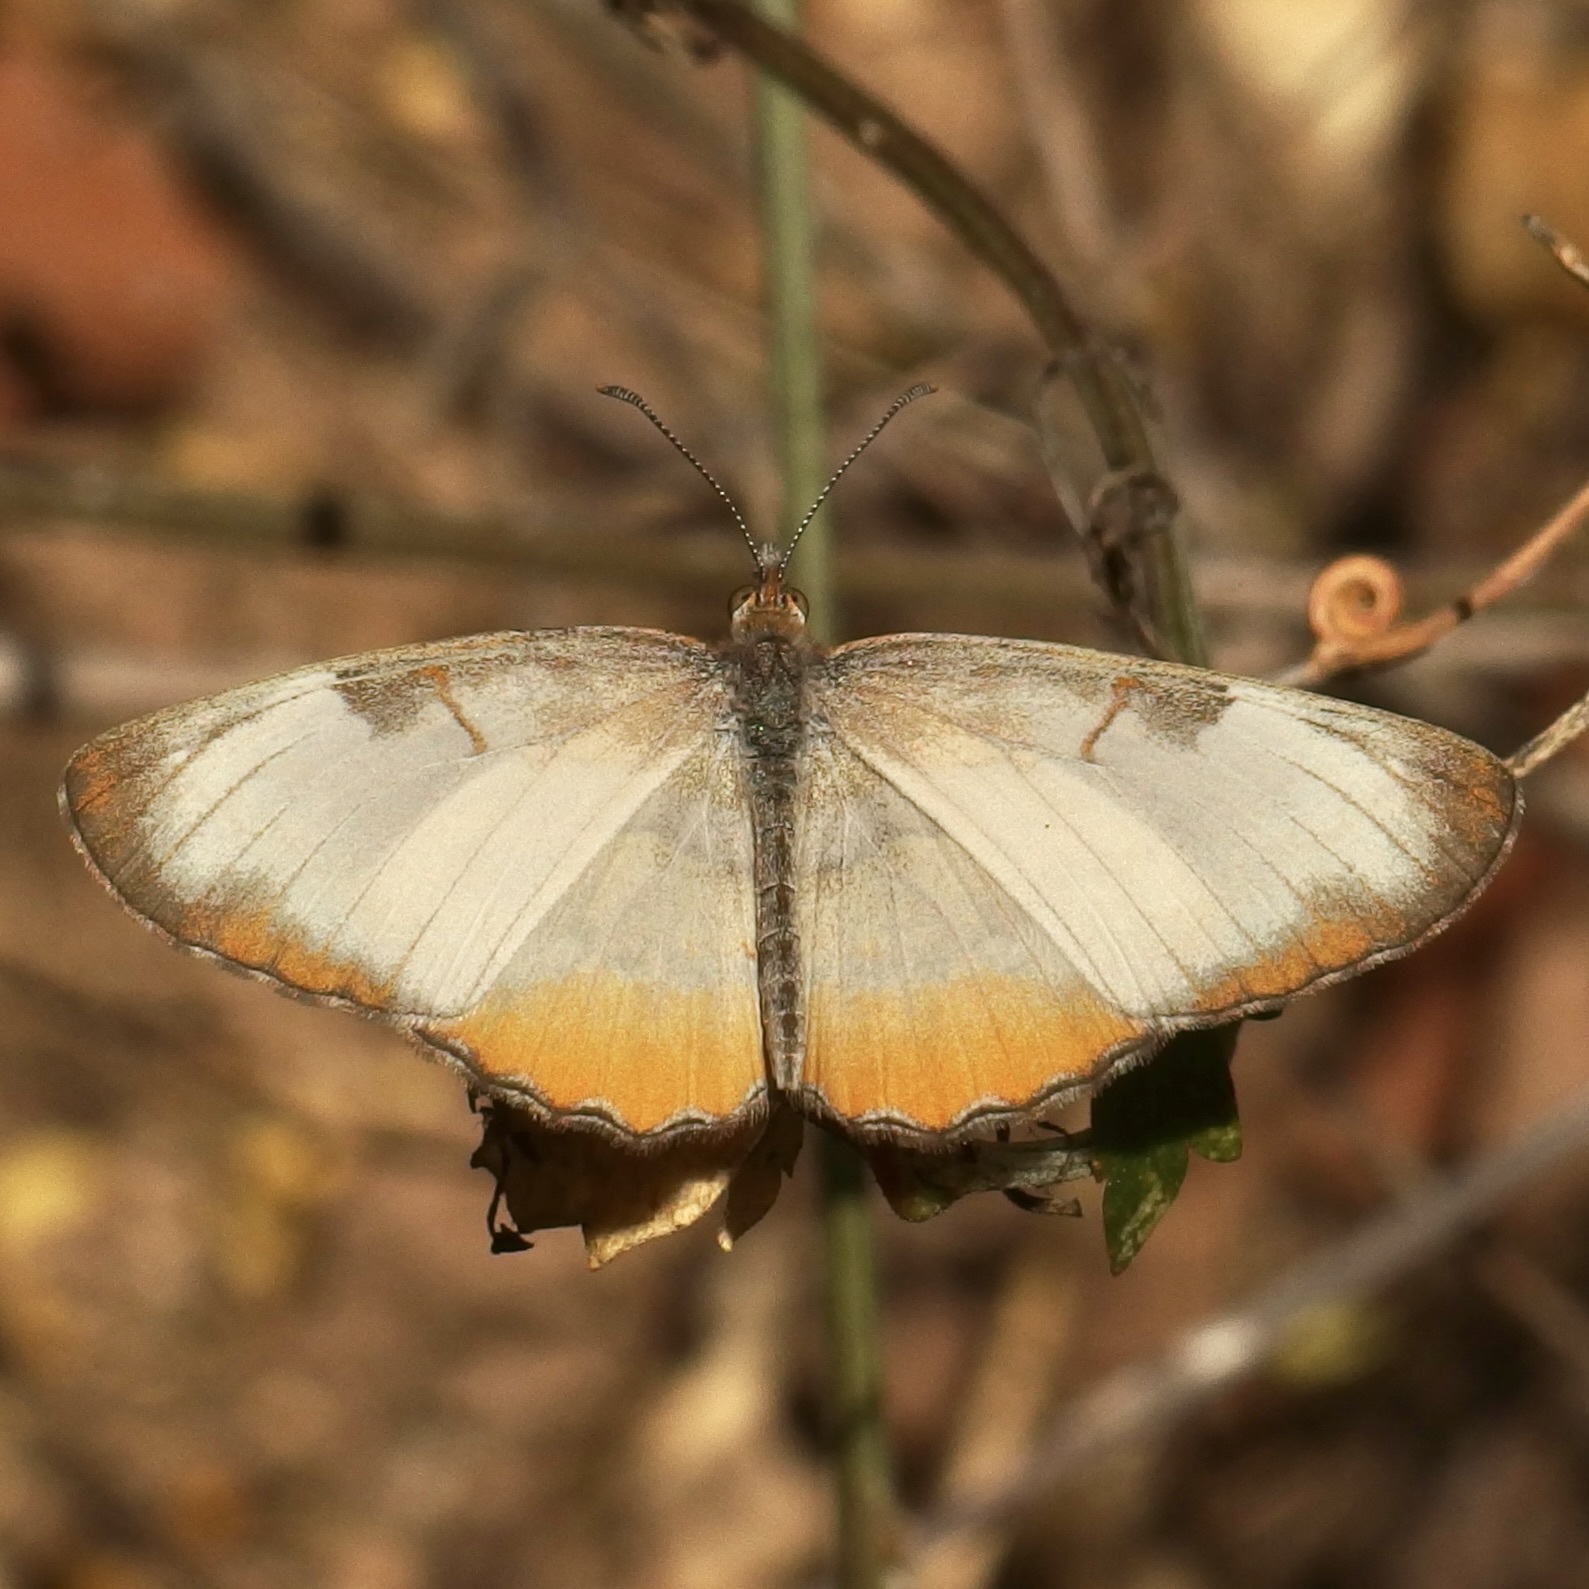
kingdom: Animalia
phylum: Arthropoda
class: Insecta
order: Lepidoptera
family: Nymphalidae
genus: Mestra
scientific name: Mestra amymone
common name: Common mestra
